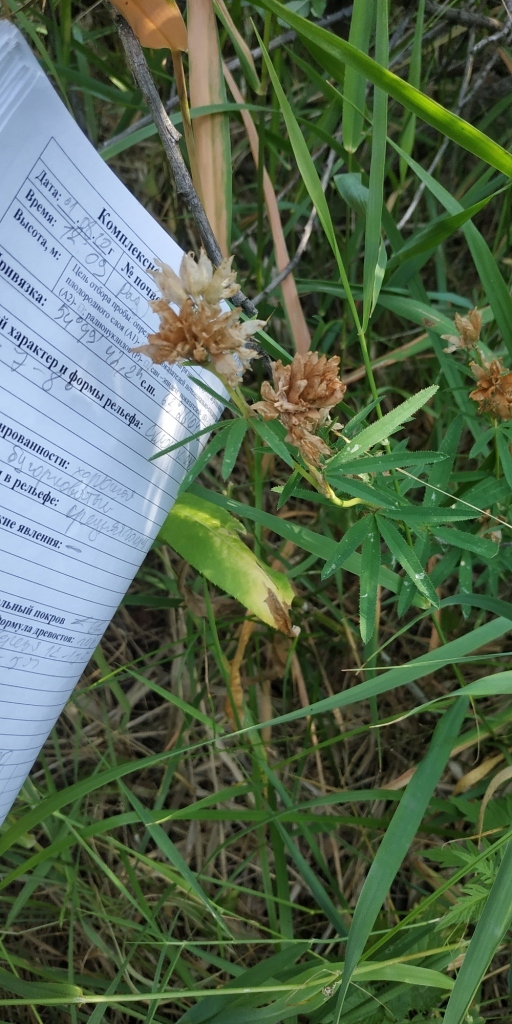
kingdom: Plantae
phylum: Tracheophyta
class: Magnoliopsida
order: Fabales
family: Fabaceae
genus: Trifolium
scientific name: Trifolium lupinaster
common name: Lupine clover
